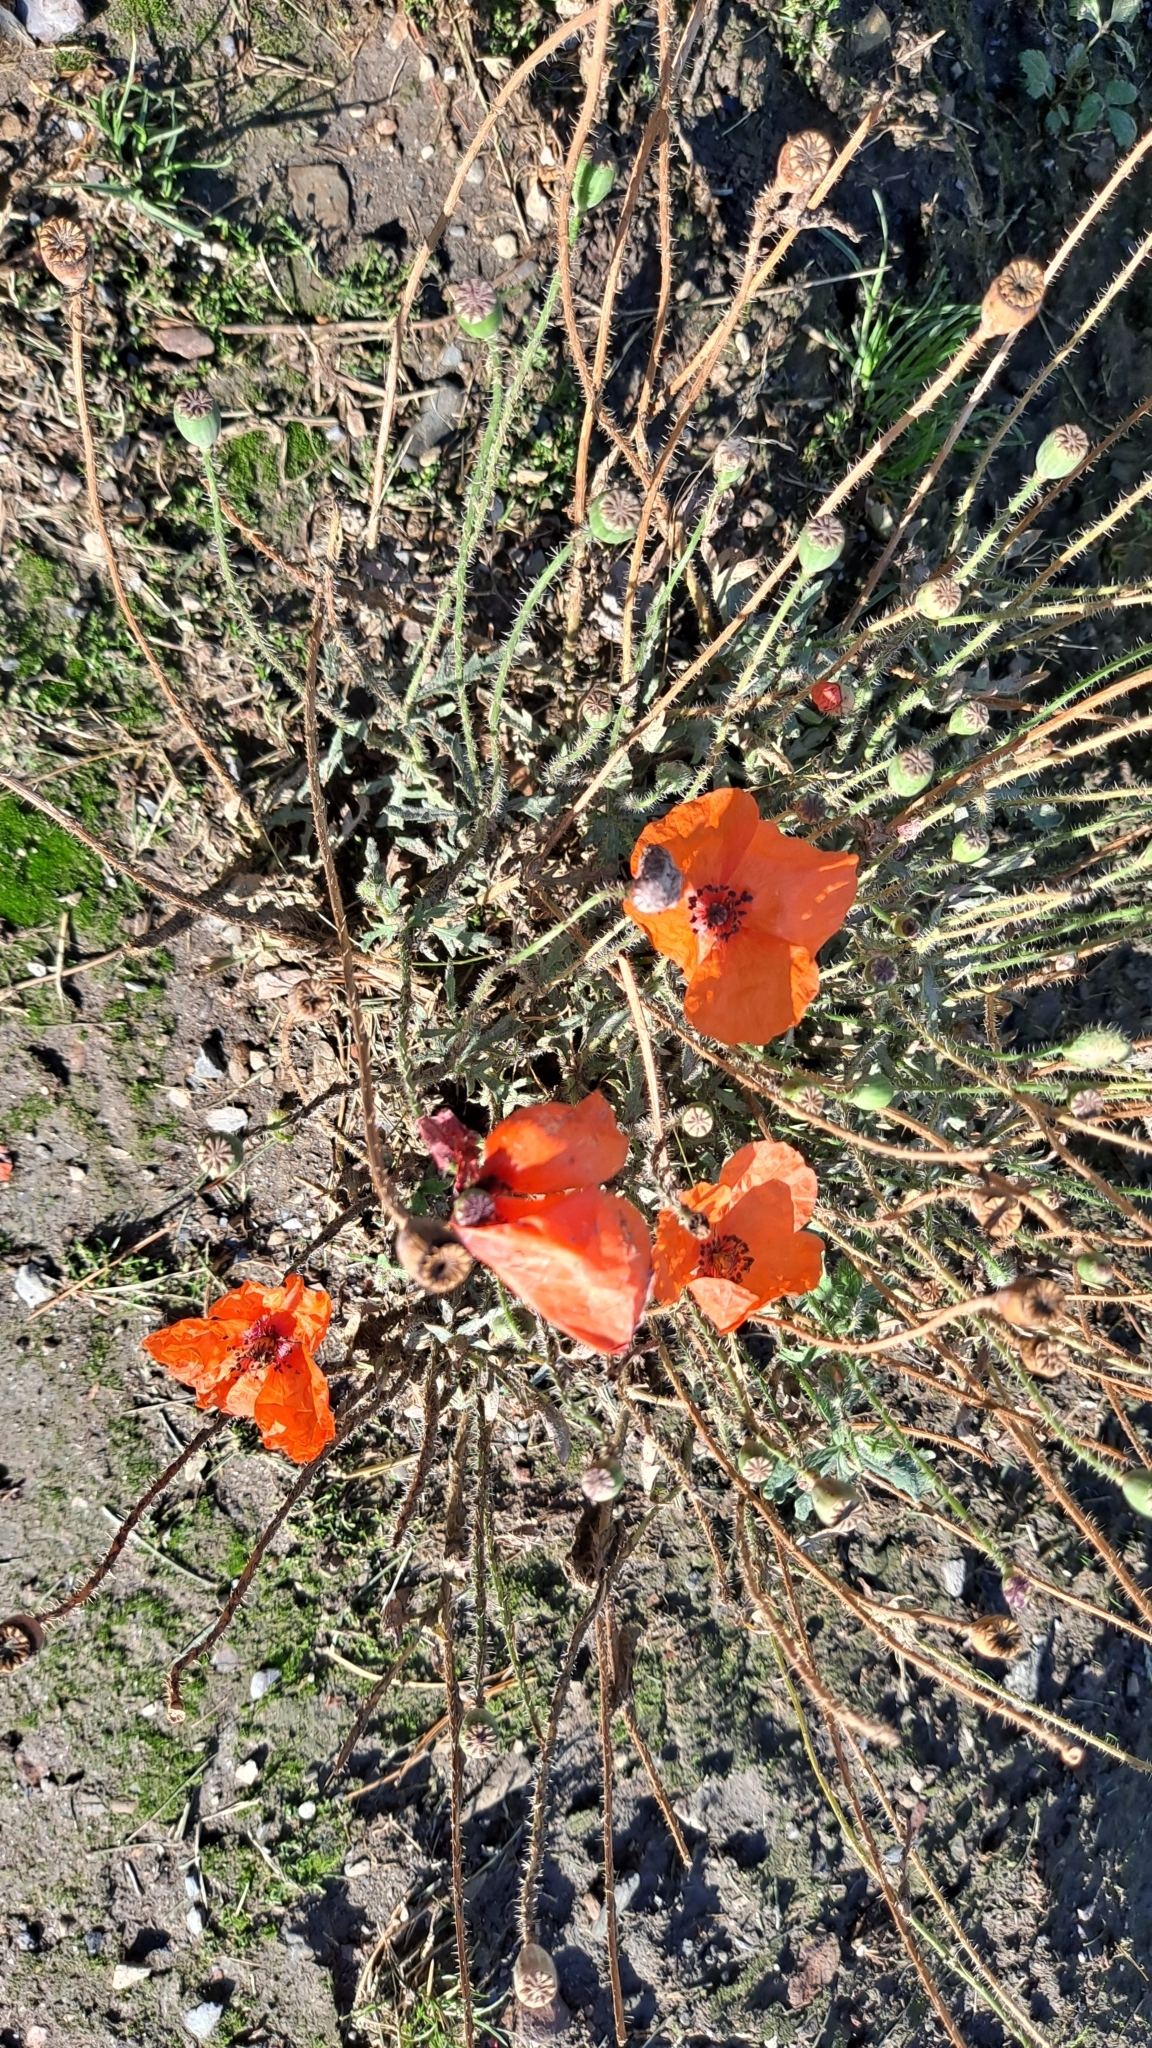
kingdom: Plantae
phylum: Tracheophyta
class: Magnoliopsida
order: Ranunculales
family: Papaveraceae
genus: Papaver
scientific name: Papaver rhoeas
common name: Corn poppy
